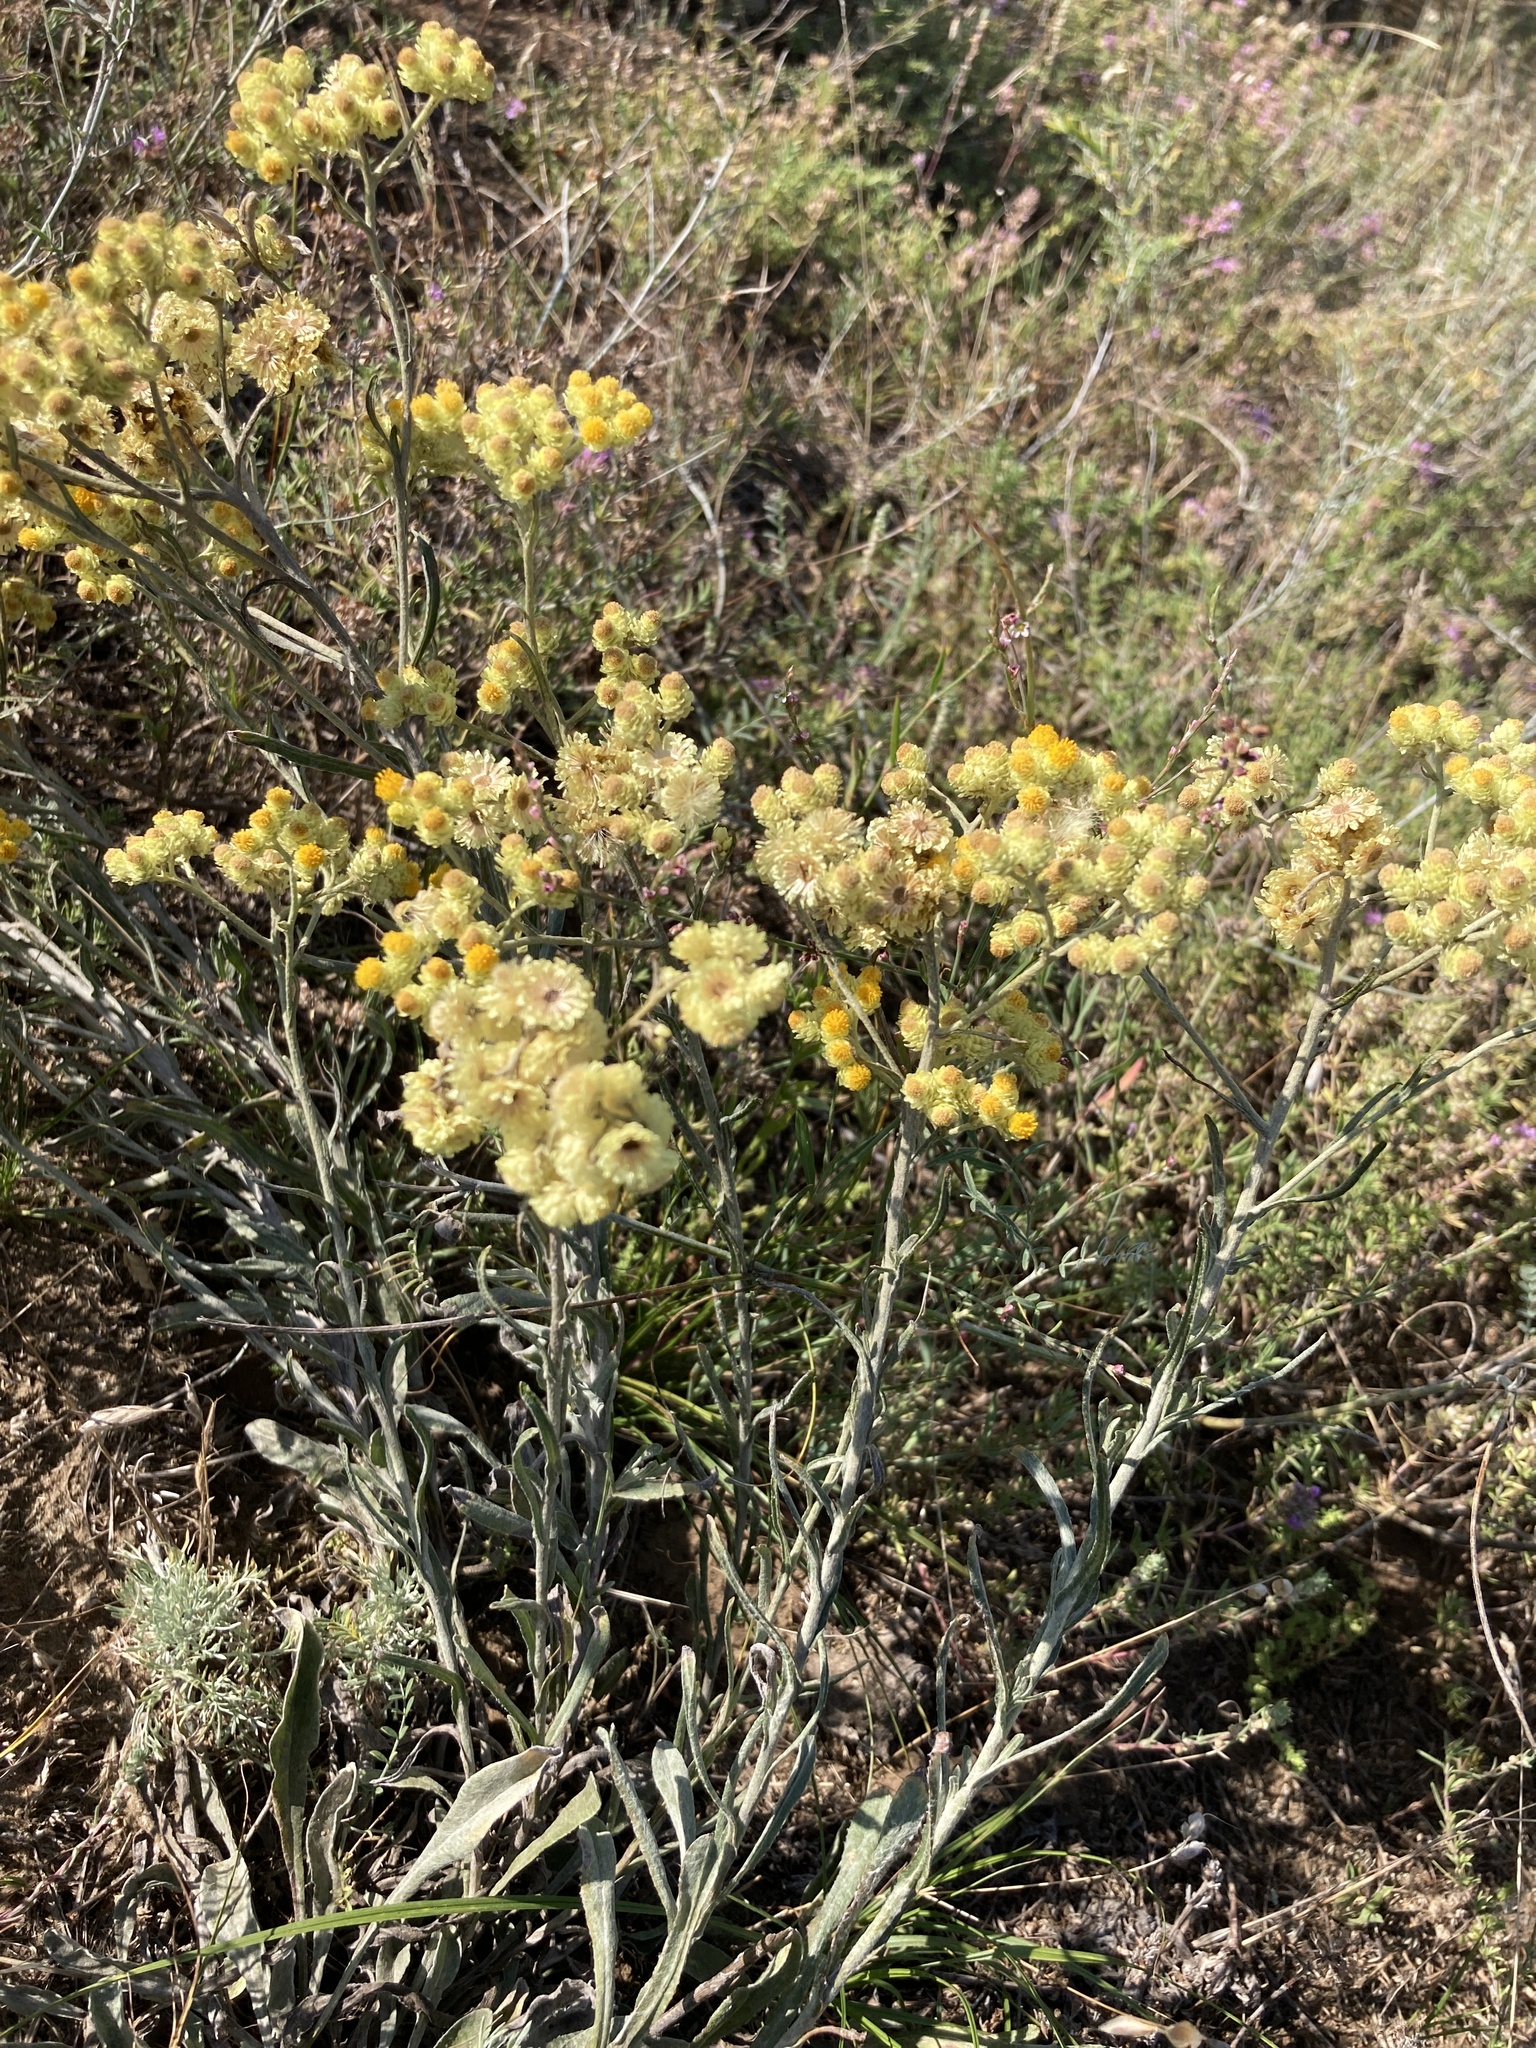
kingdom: Plantae
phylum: Tracheophyta
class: Magnoliopsida
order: Asterales
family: Asteraceae
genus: Helichrysum
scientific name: Helichrysum arenarium
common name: Strawflower
